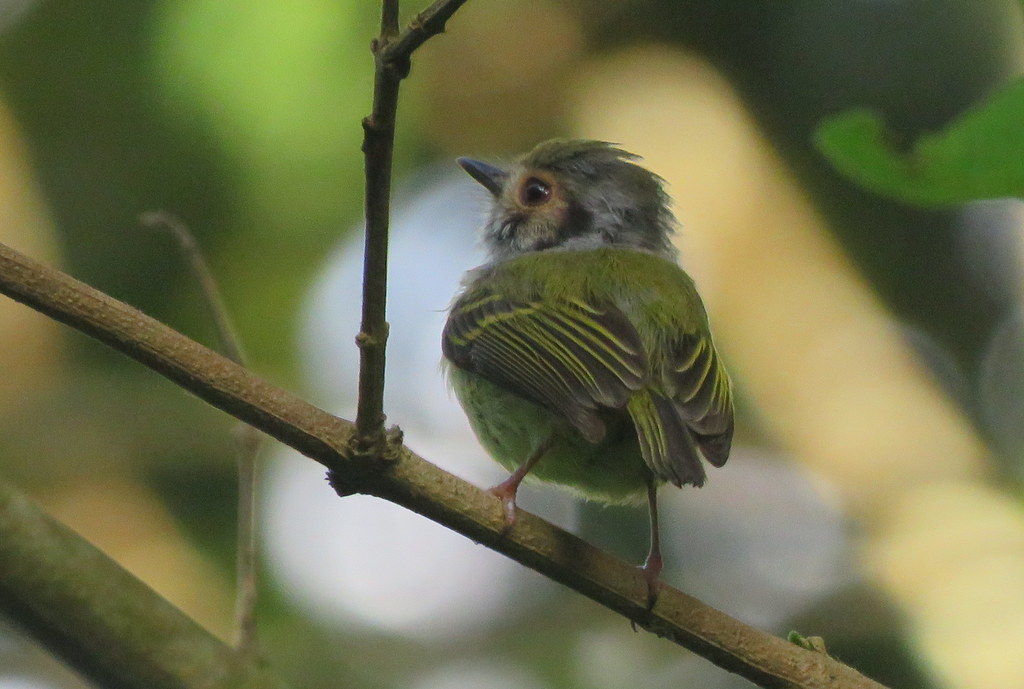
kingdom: Animalia
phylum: Chordata
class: Aves
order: Passeriformes
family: Tyrannidae
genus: Myiornis
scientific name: Myiornis auricularis
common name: Eared pygmy tyrant
